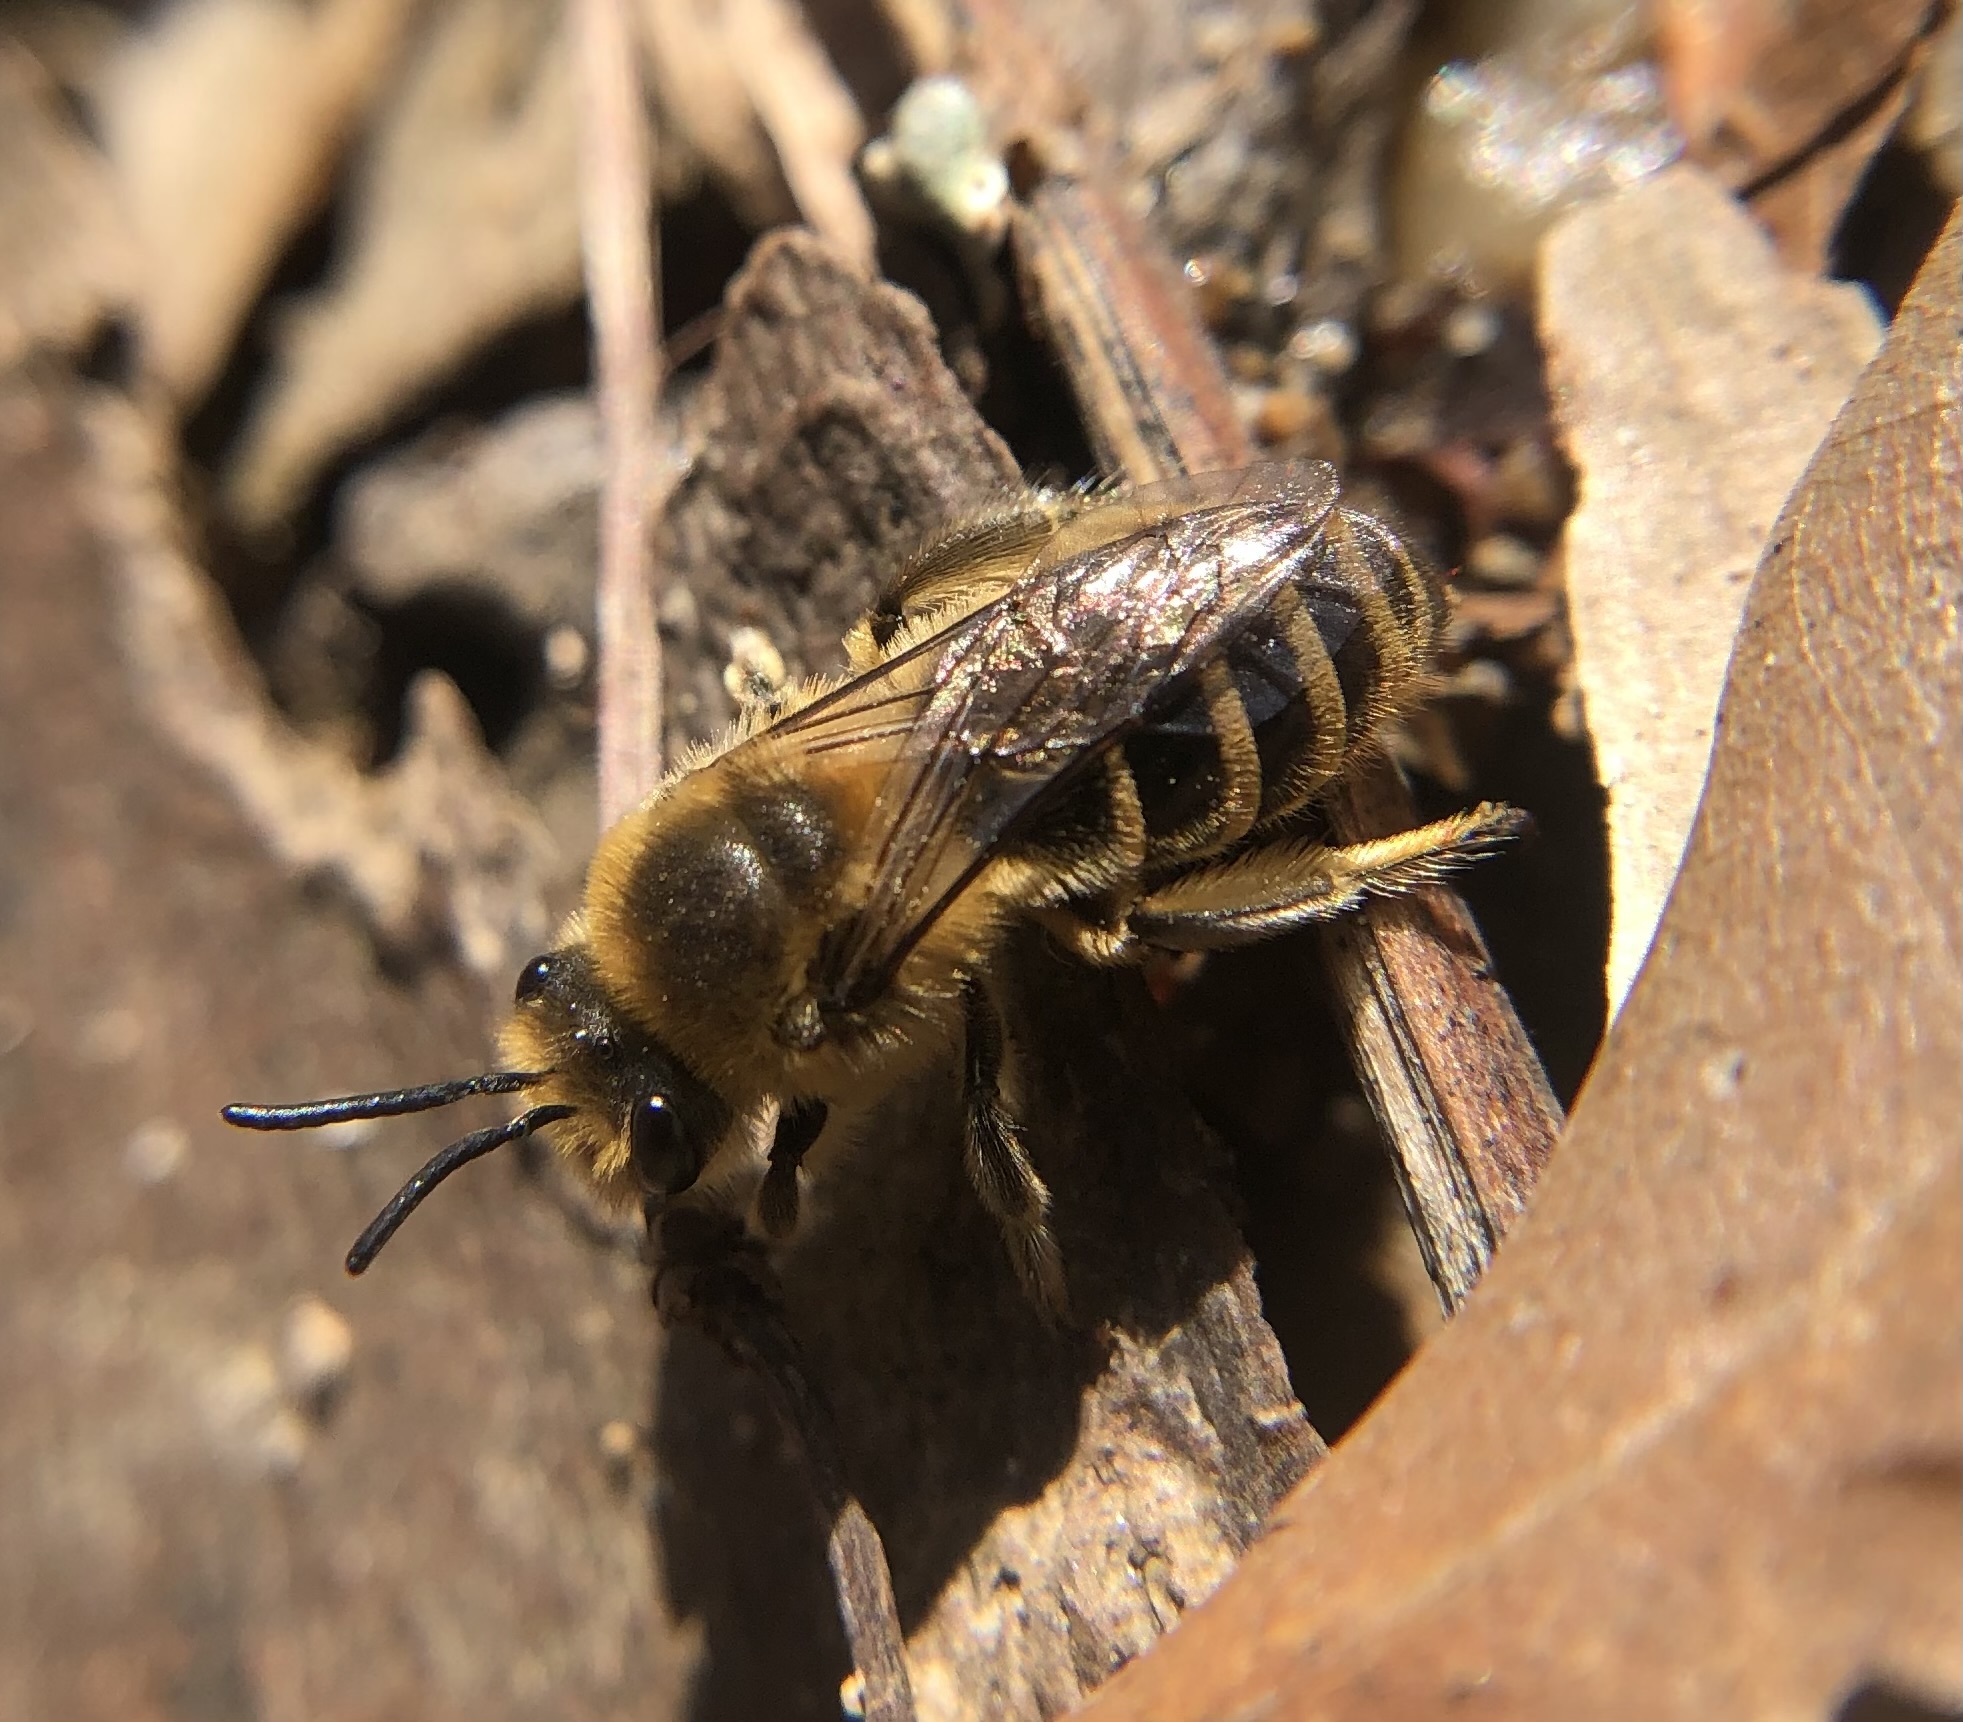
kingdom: Animalia
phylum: Arthropoda
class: Insecta
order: Hymenoptera
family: Colletidae
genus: Colletes
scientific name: Colletes inaequalis
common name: Unequal cellophane bee
